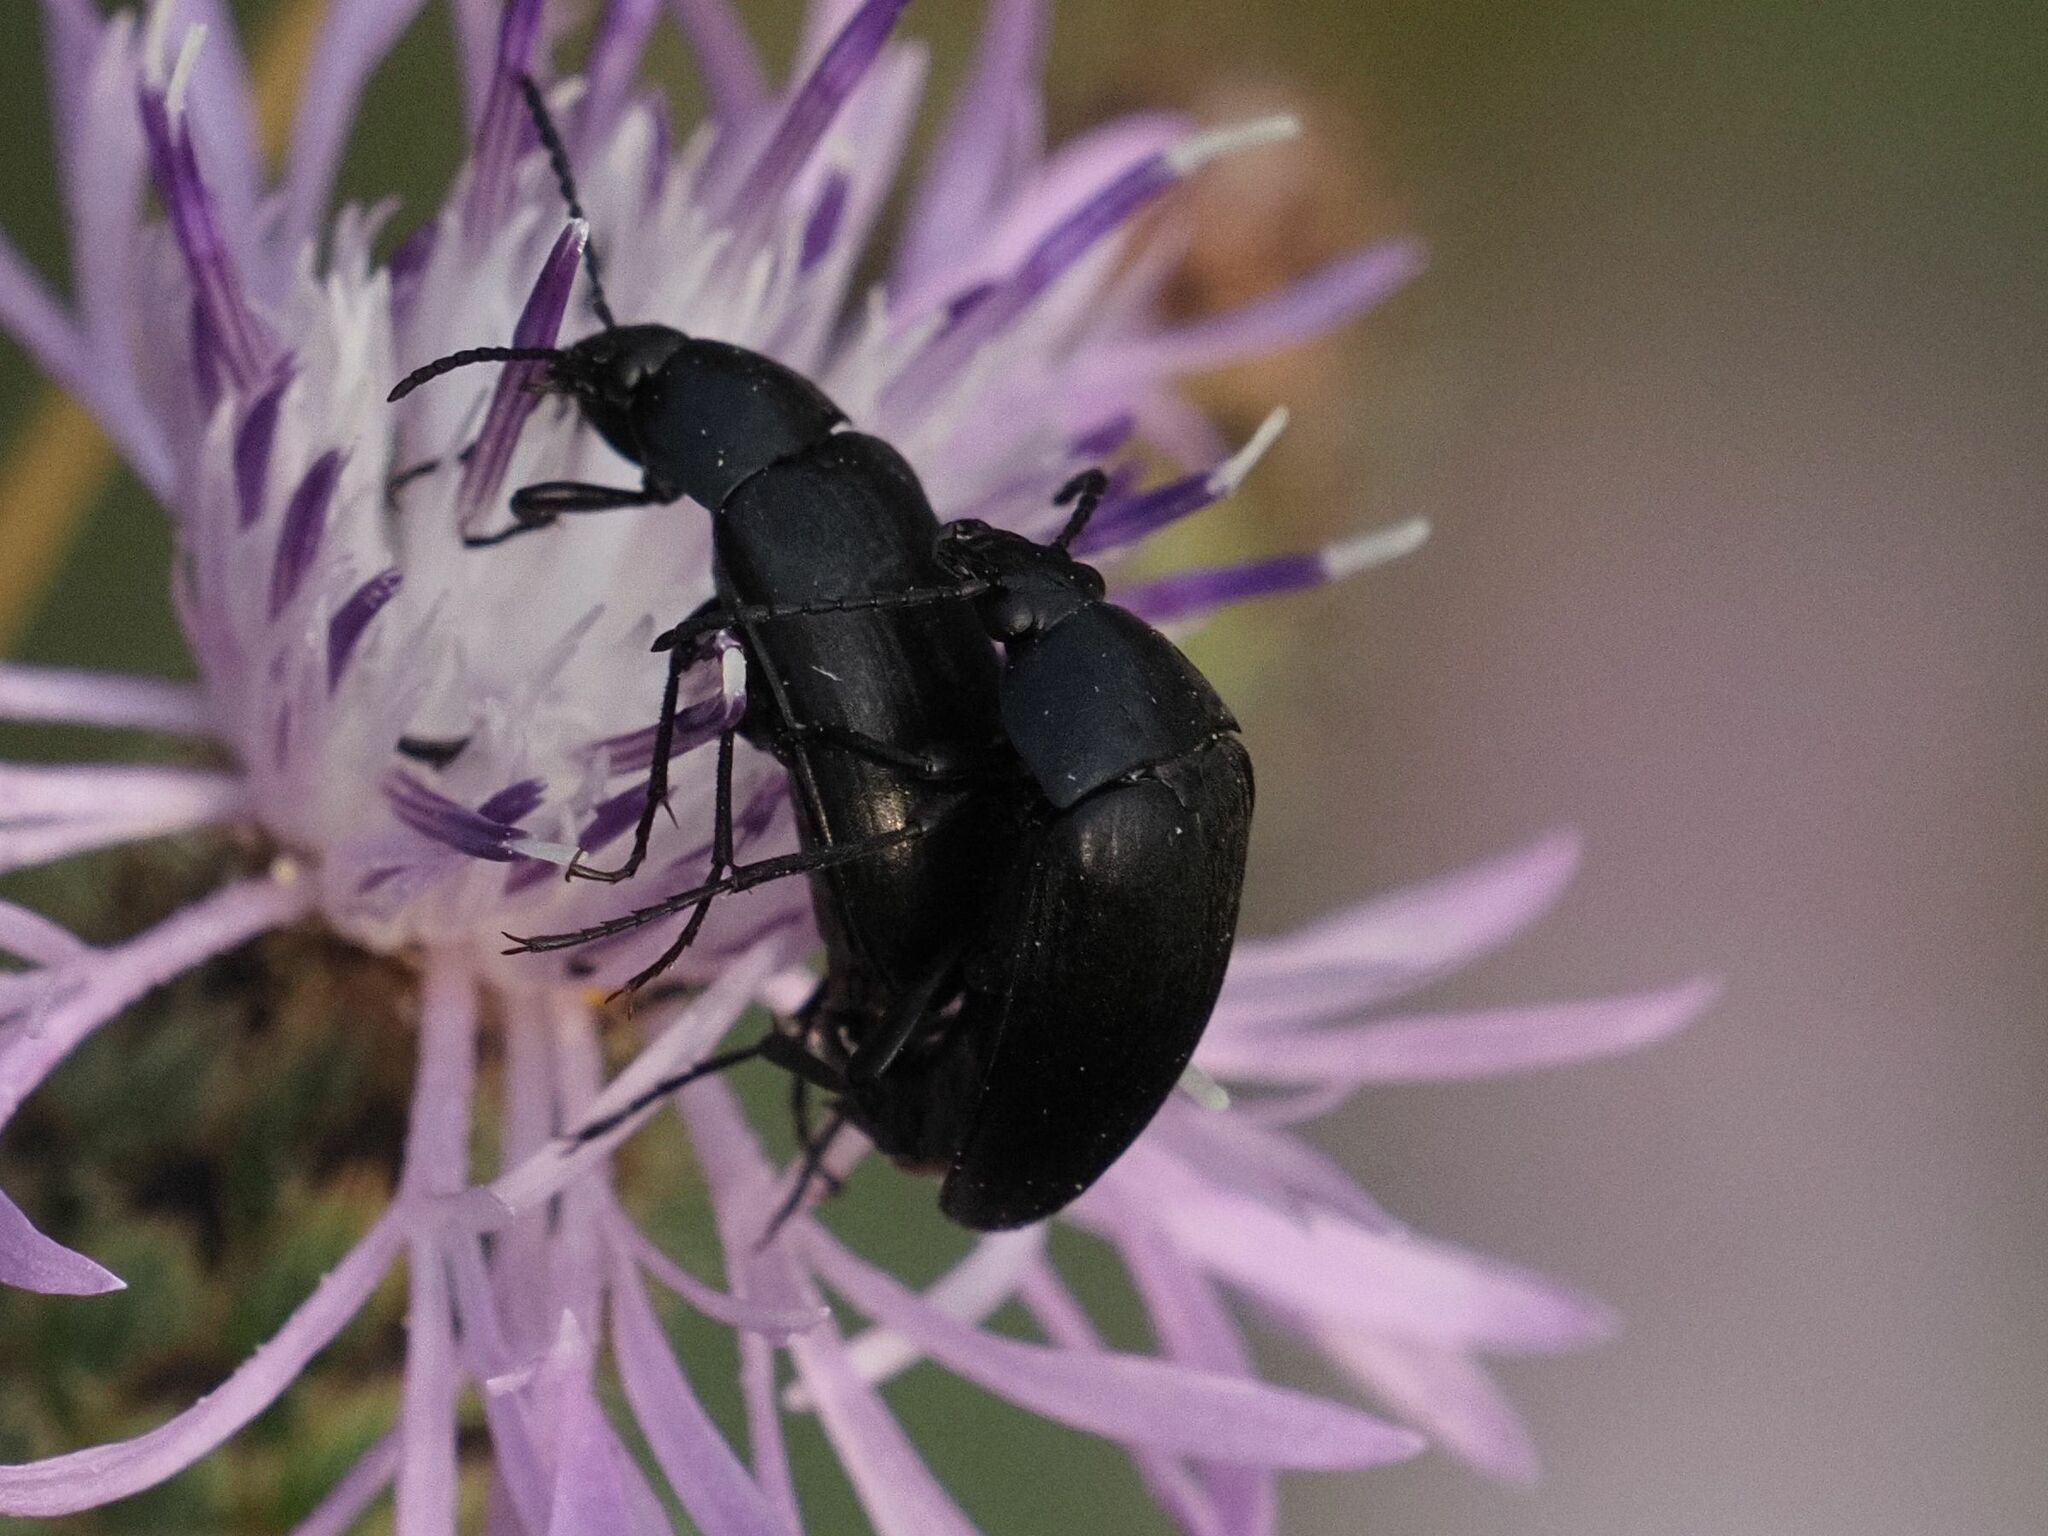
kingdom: Animalia
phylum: Arthropoda
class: Insecta
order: Coleoptera
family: Tenebrionidae
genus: Podonta
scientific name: Podonta nigrita
